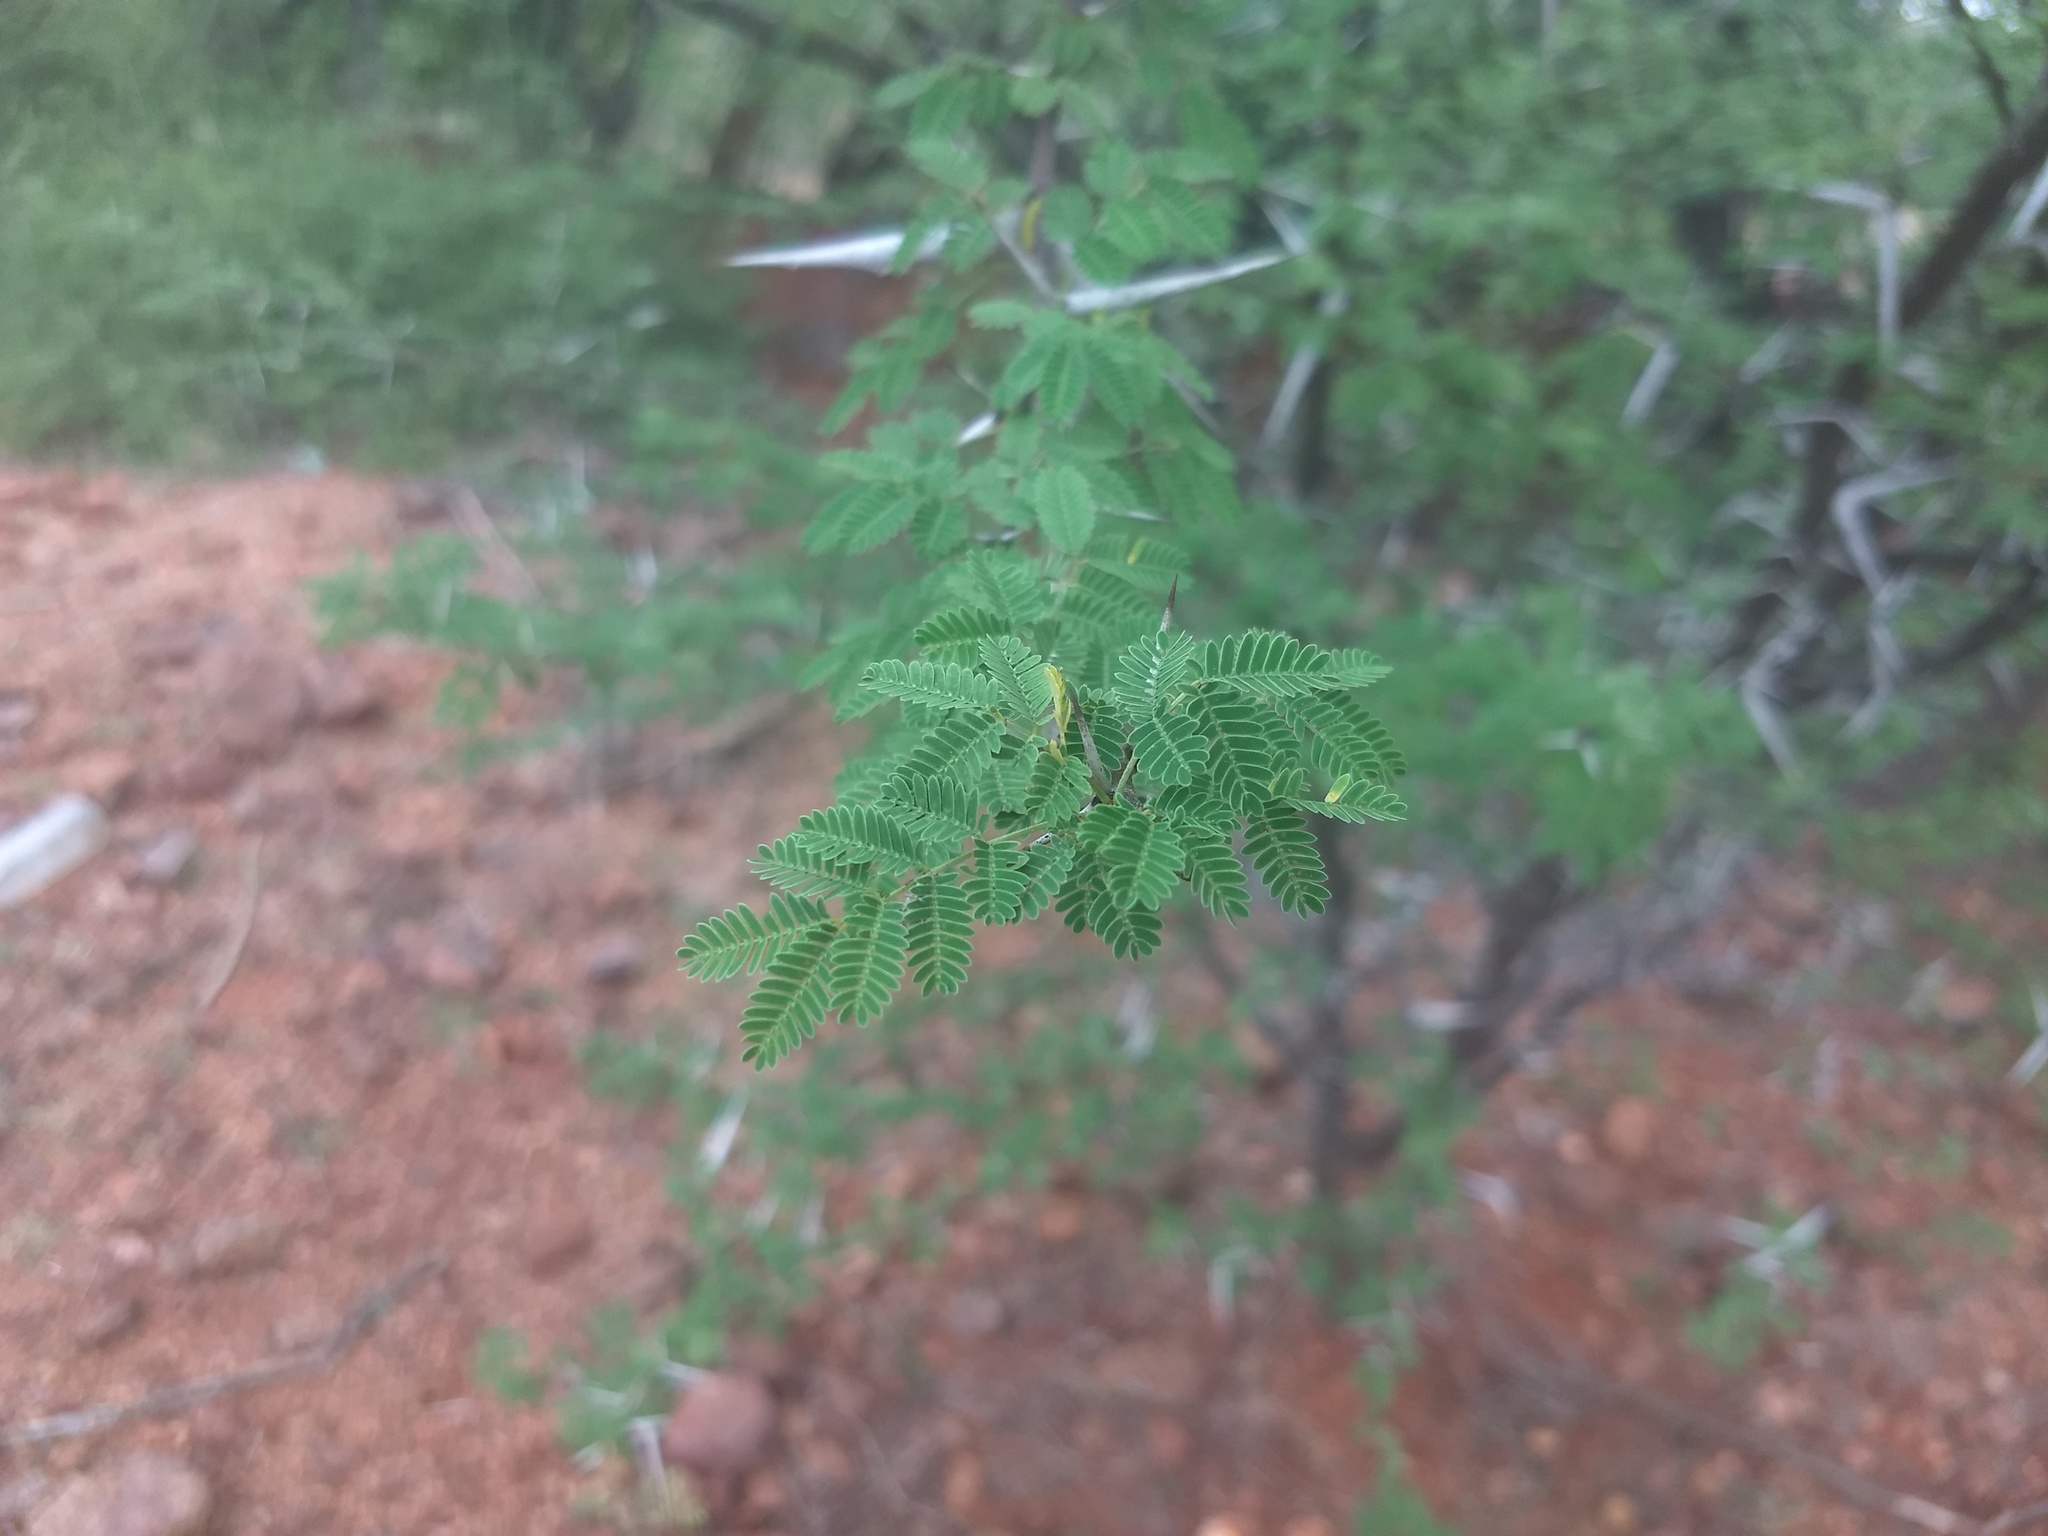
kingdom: Plantae
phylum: Tracheophyta
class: Magnoliopsida
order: Fabales
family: Fabaceae
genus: Vachellia
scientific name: Vachellia horrida
